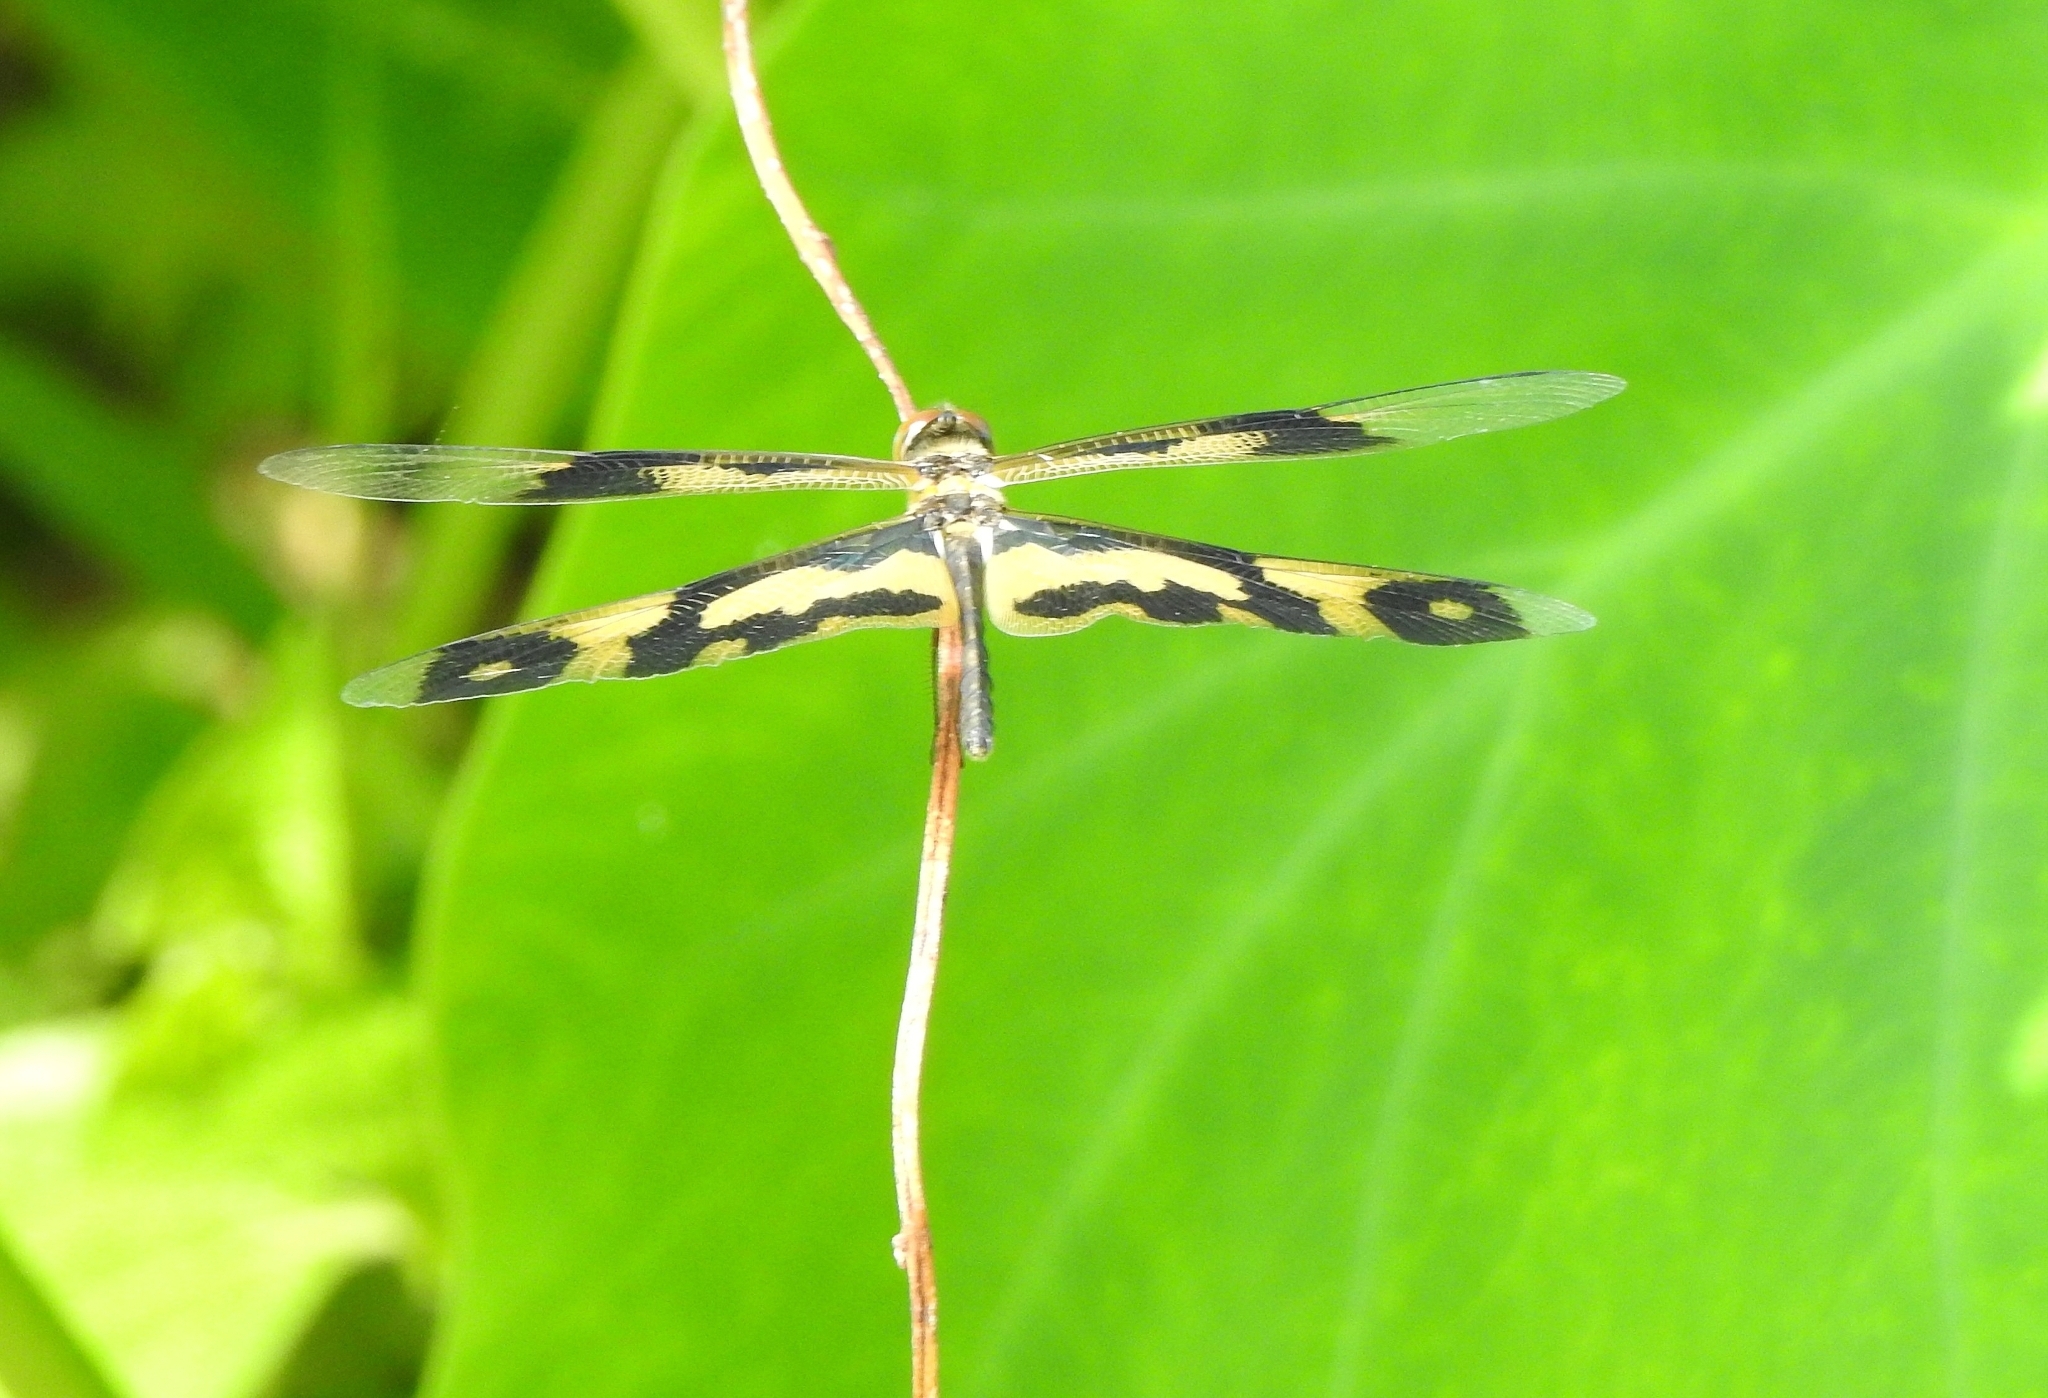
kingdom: Animalia
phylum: Arthropoda
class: Insecta
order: Odonata
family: Libellulidae
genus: Rhyothemis
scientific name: Rhyothemis variegata
